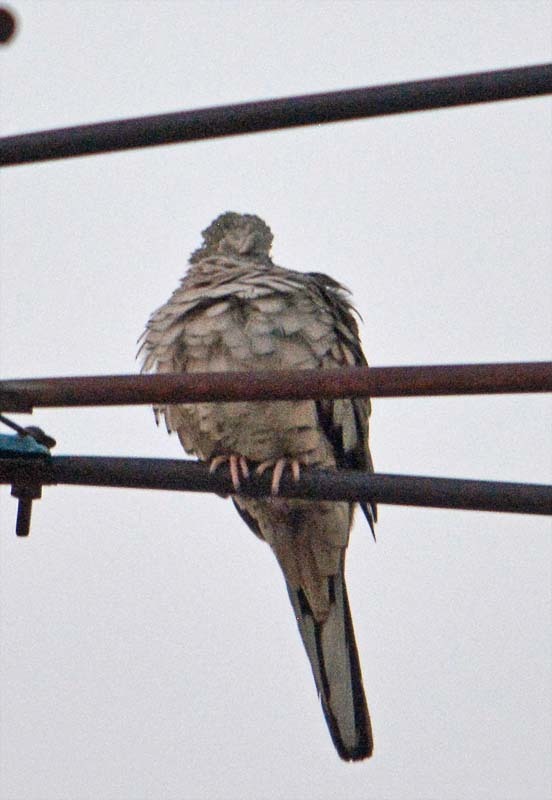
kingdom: Animalia
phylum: Chordata
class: Aves
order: Columbiformes
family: Columbidae
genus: Columbina
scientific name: Columbina inca
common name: Inca dove
